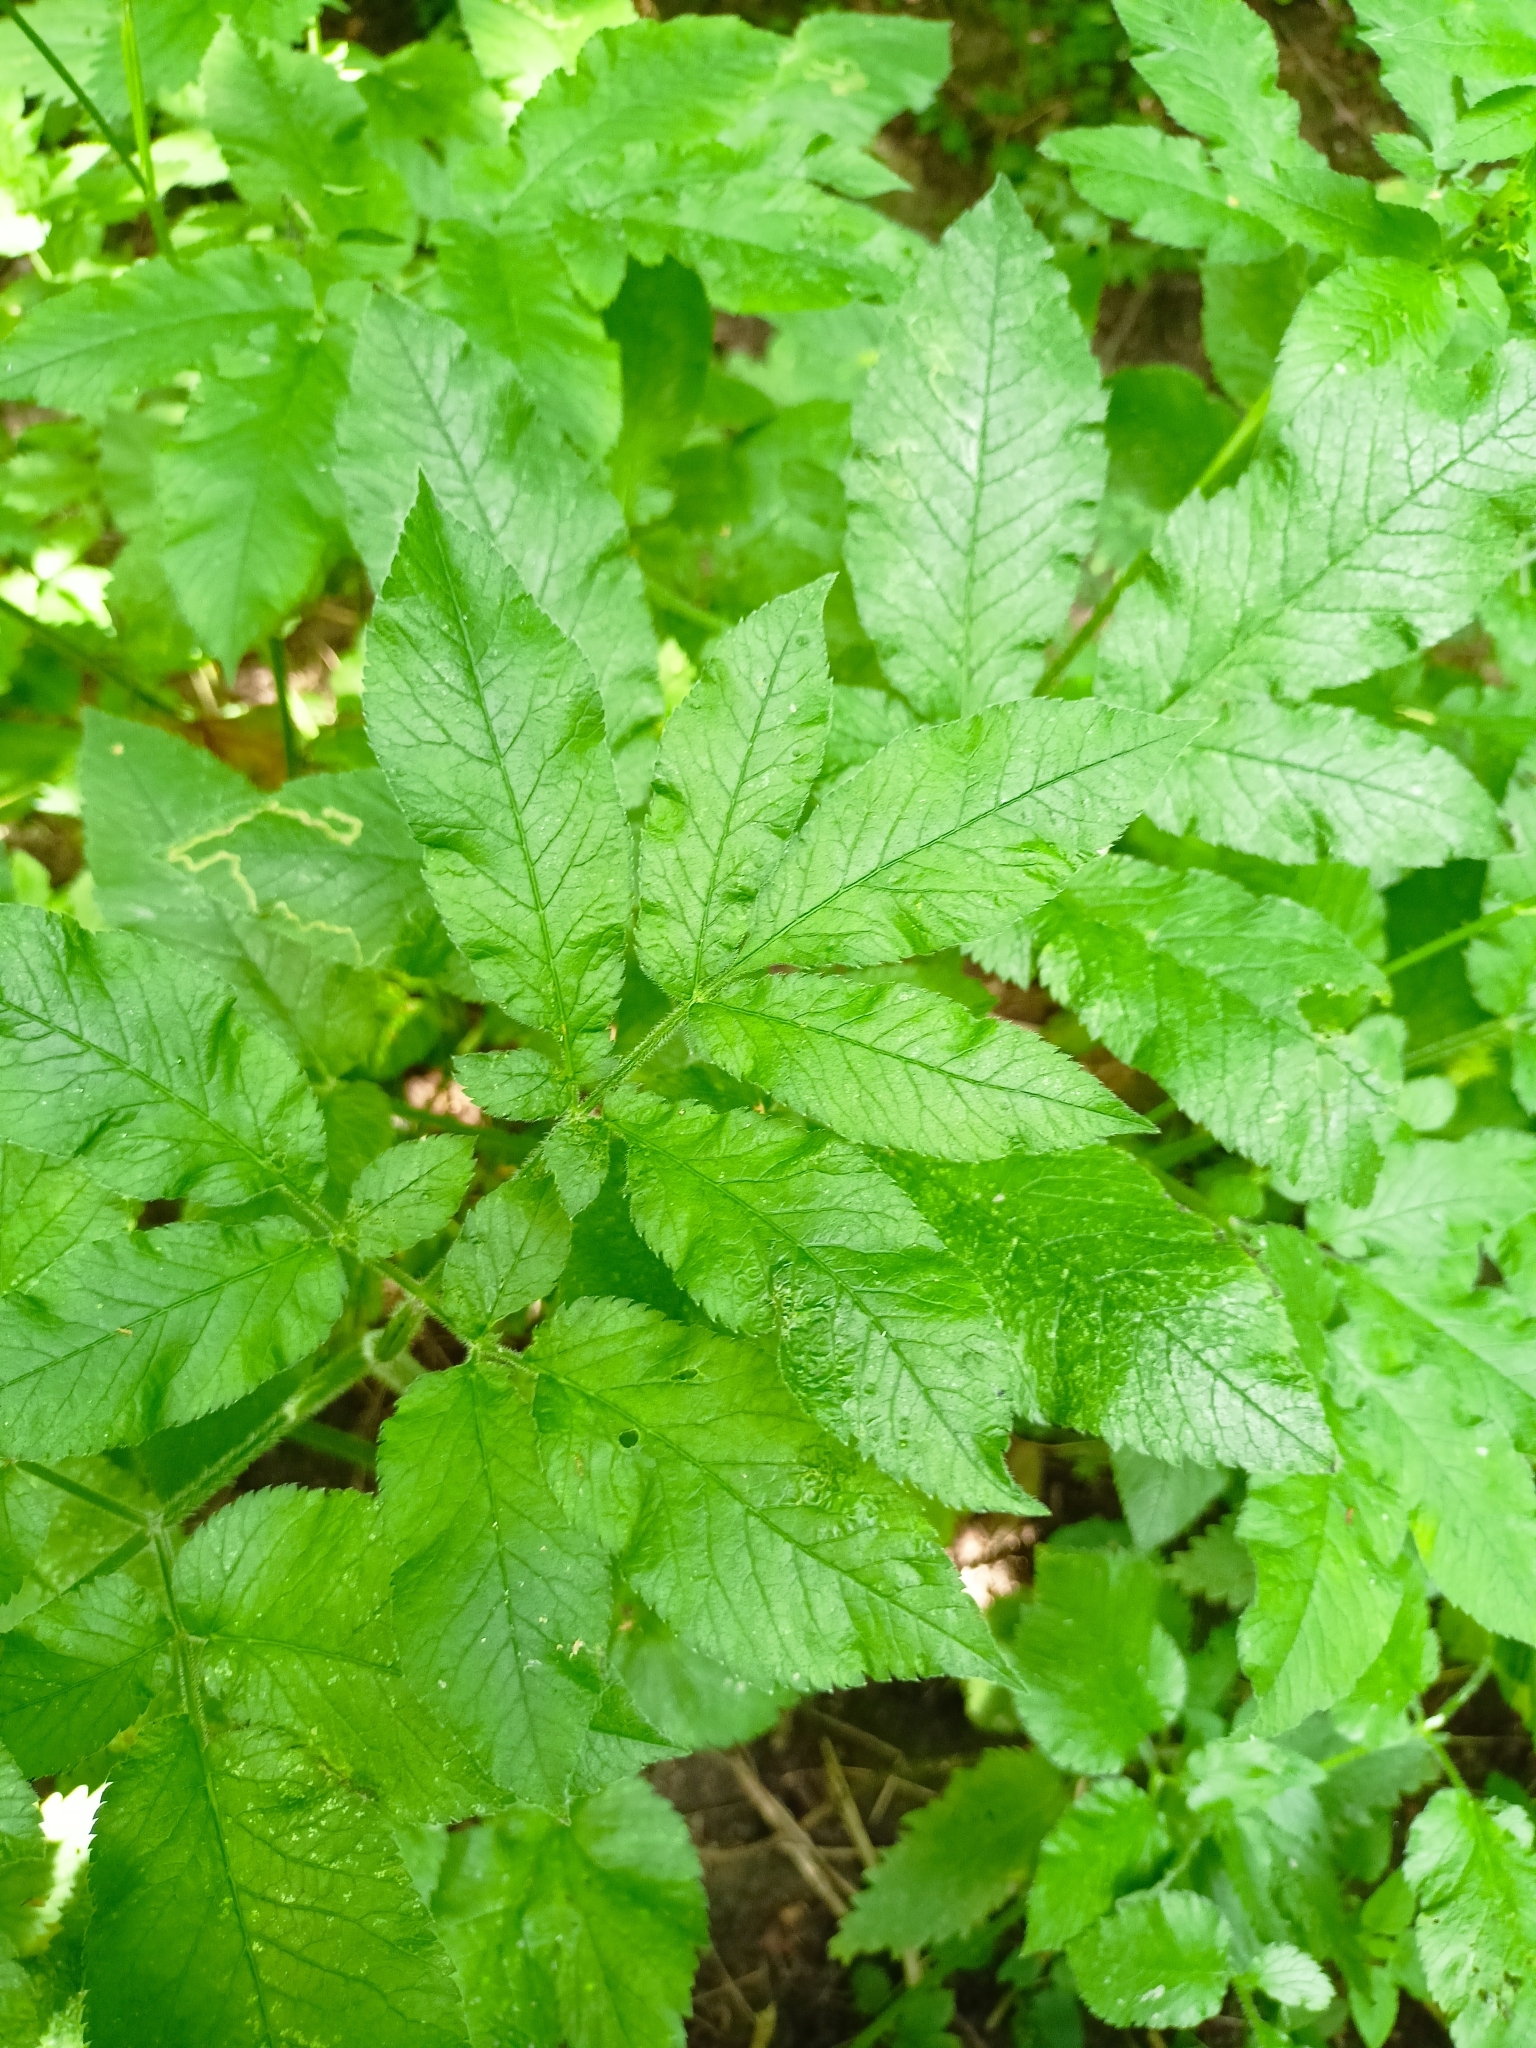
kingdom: Plantae
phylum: Tracheophyta
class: Magnoliopsida
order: Apiales
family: Apiaceae
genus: Chaerophyllum
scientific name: Chaerophyllum aromaticum
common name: Broadleaf chervil
